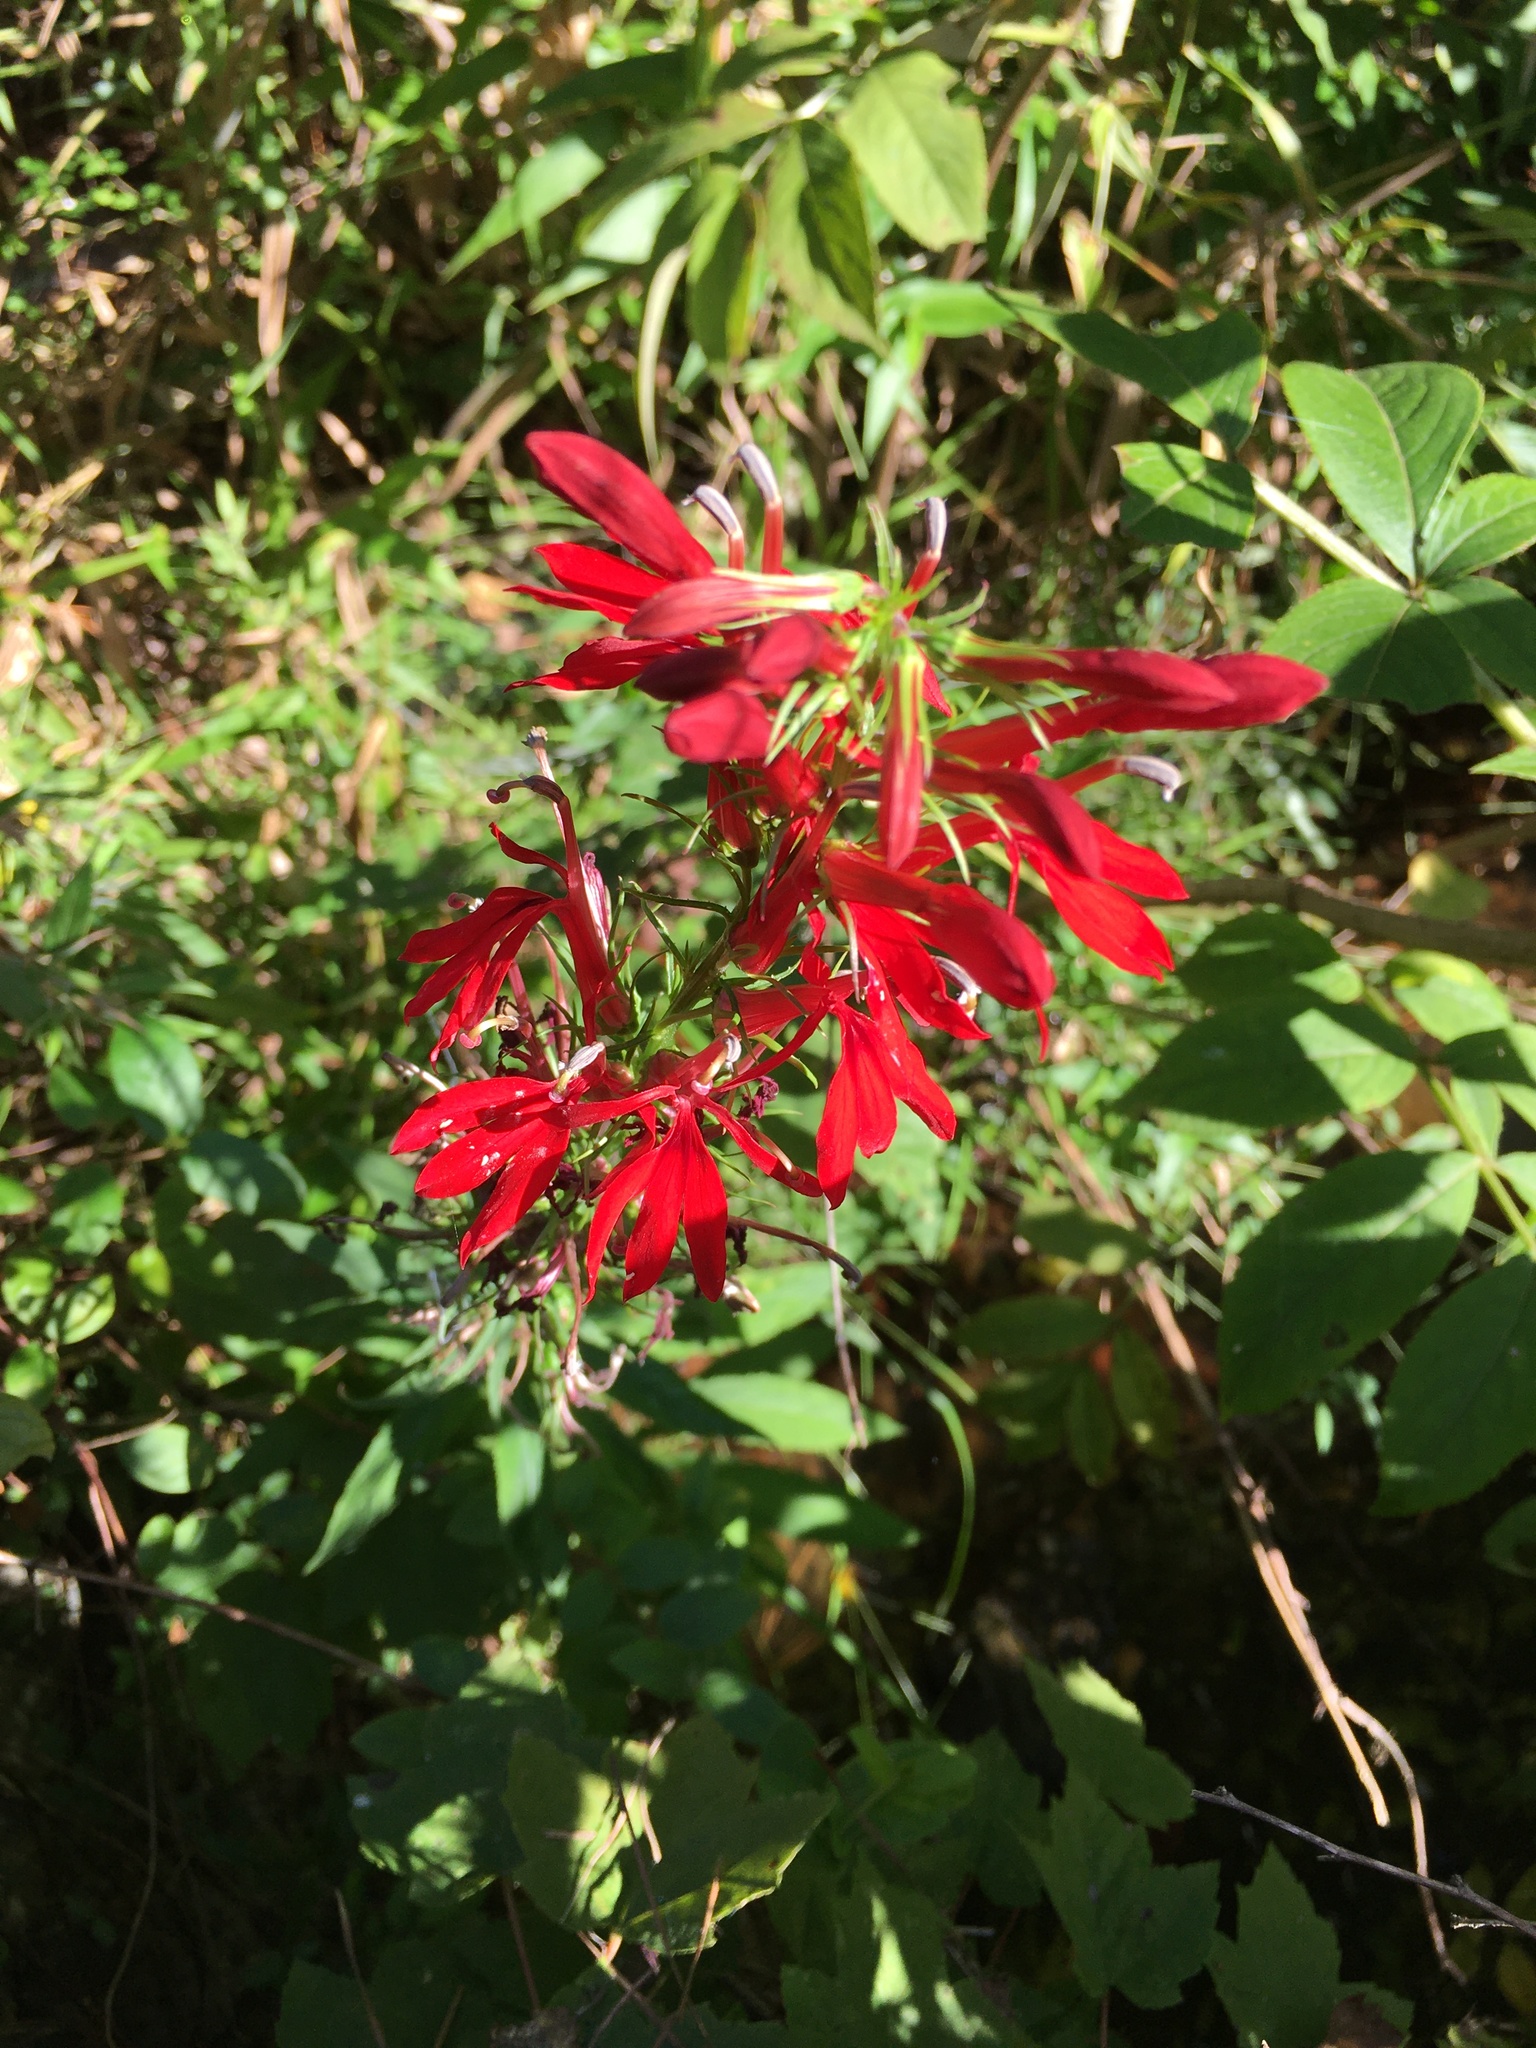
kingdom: Plantae
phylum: Tracheophyta
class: Magnoliopsida
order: Asterales
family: Campanulaceae
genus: Lobelia
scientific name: Lobelia cardinalis
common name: Cardinal flower
